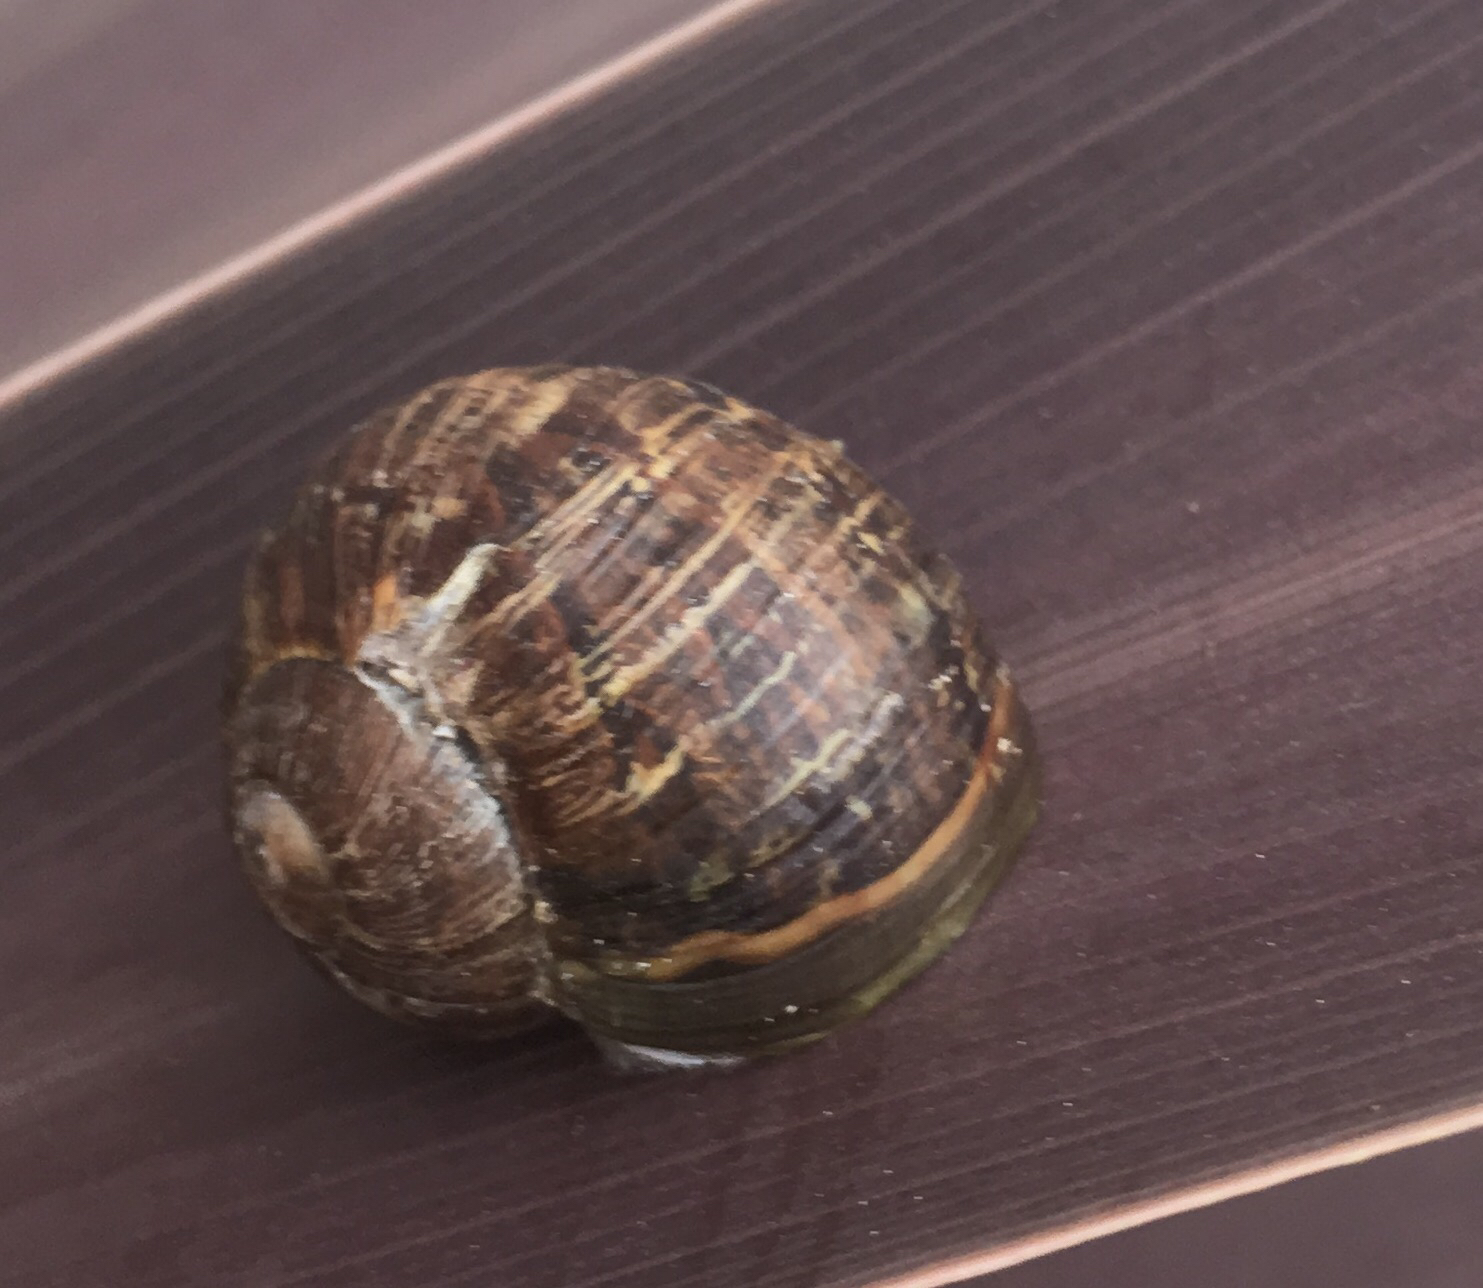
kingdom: Animalia
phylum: Mollusca
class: Gastropoda
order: Stylommatophora
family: Helicidae
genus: Cornu
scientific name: Cornu aspersum
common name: Brown garden snail
